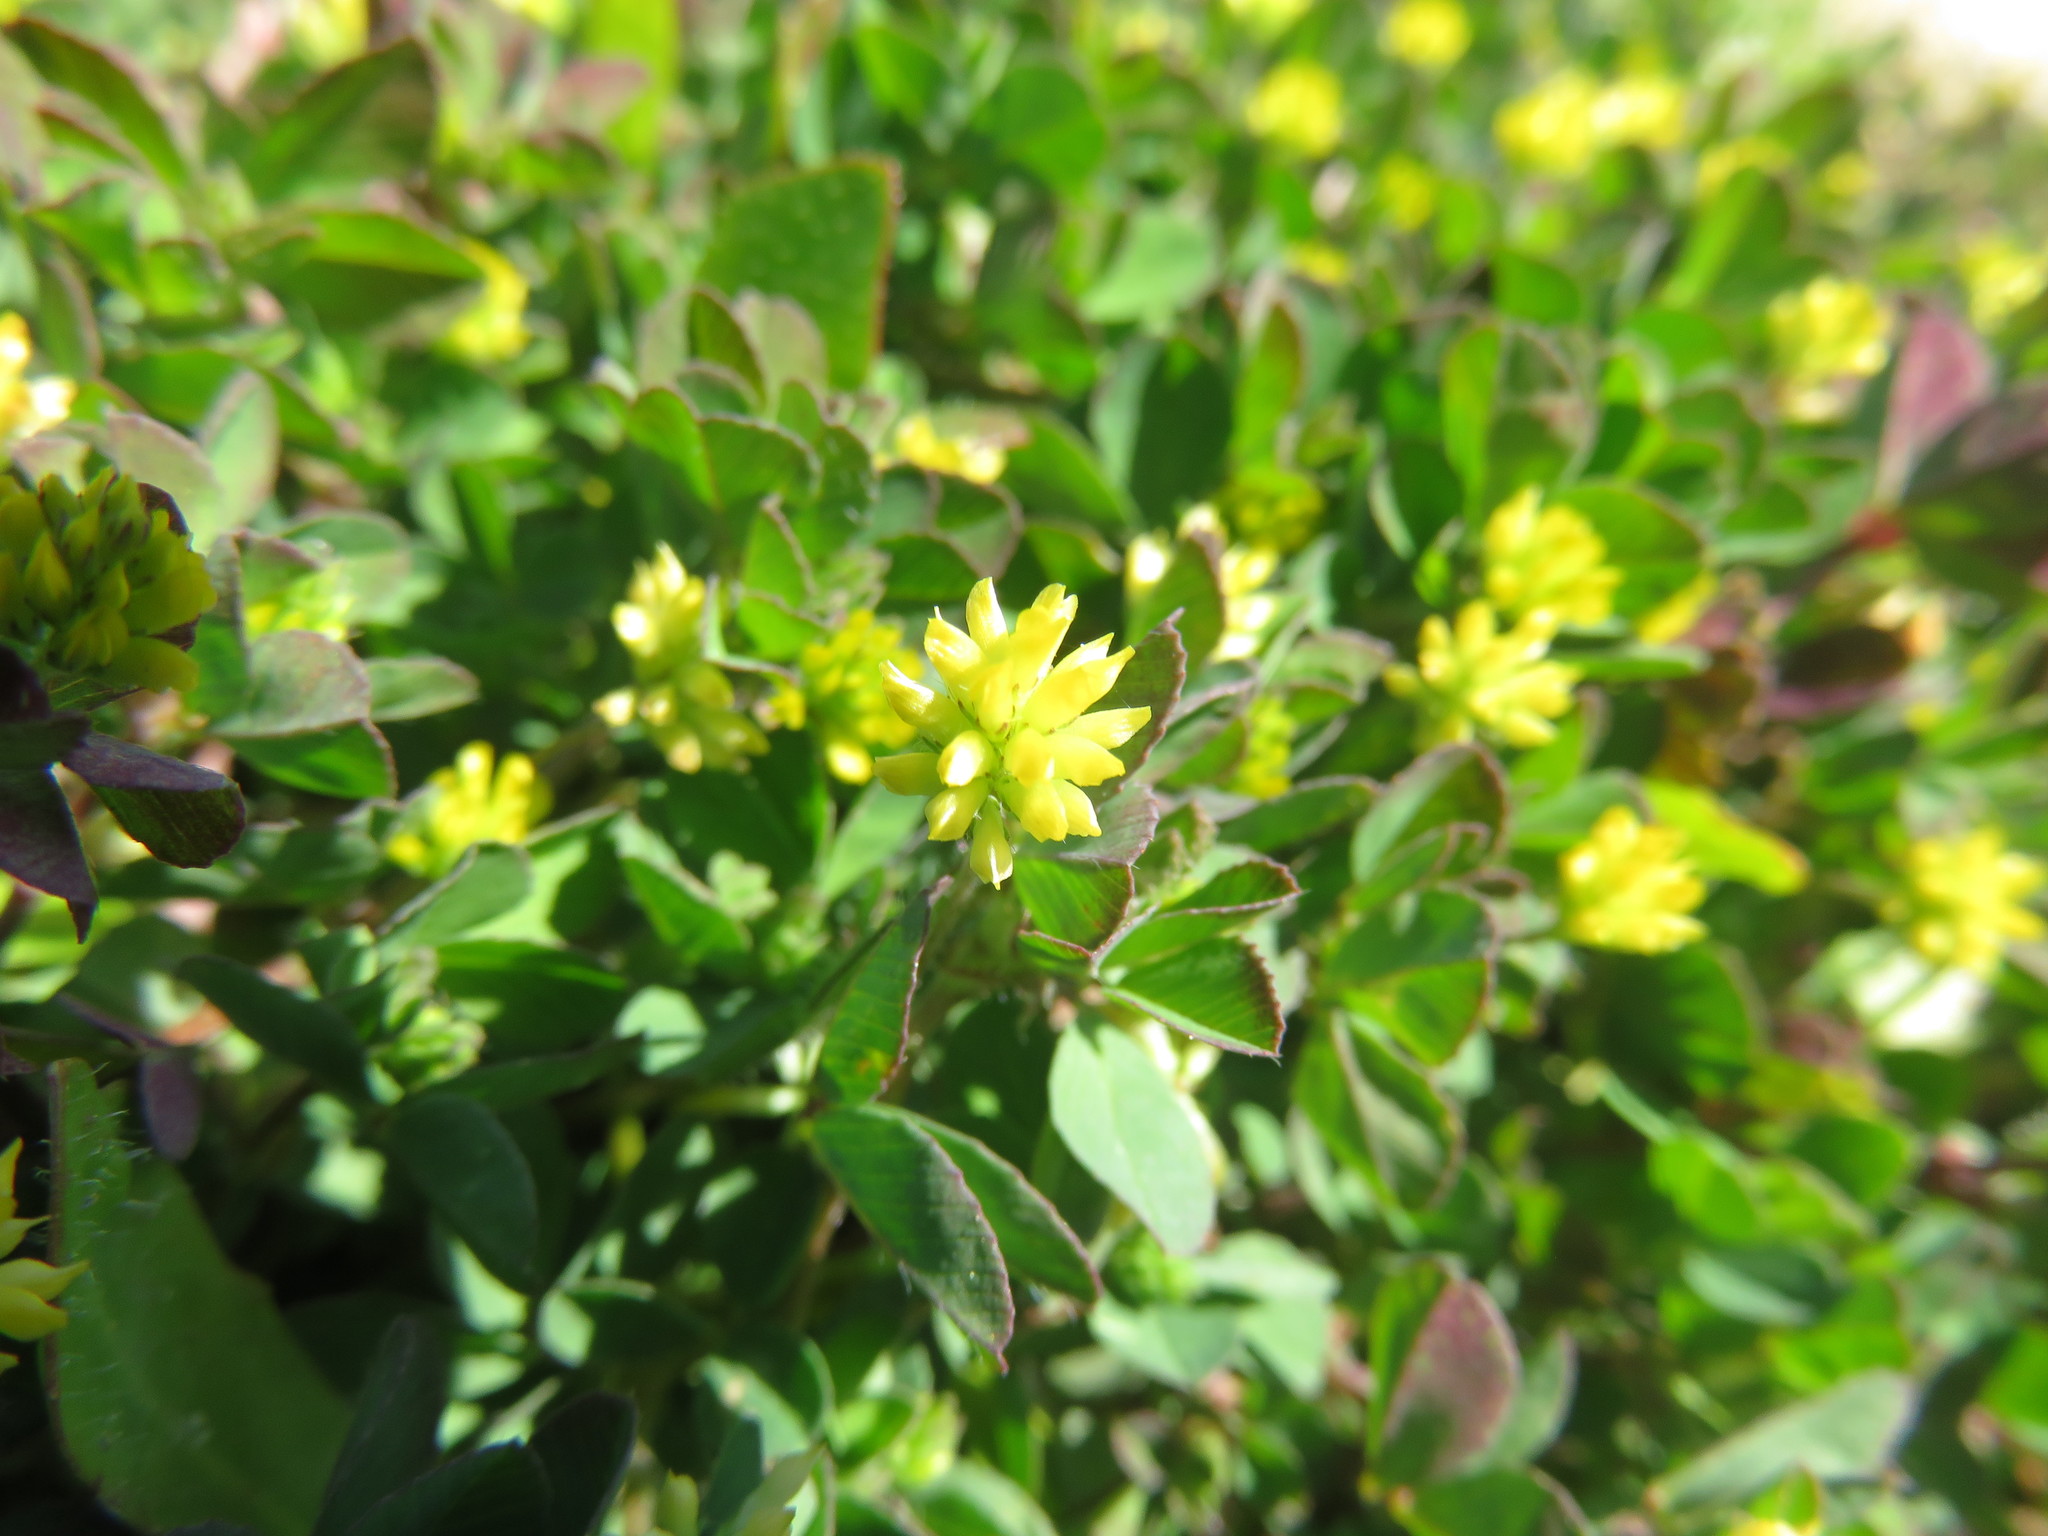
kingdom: Plantae
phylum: Tracheophyta
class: Magnoliopsida
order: Fabales
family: Fabaceae
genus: Trifolium
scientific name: Trifolium dubium
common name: Suckling clover
